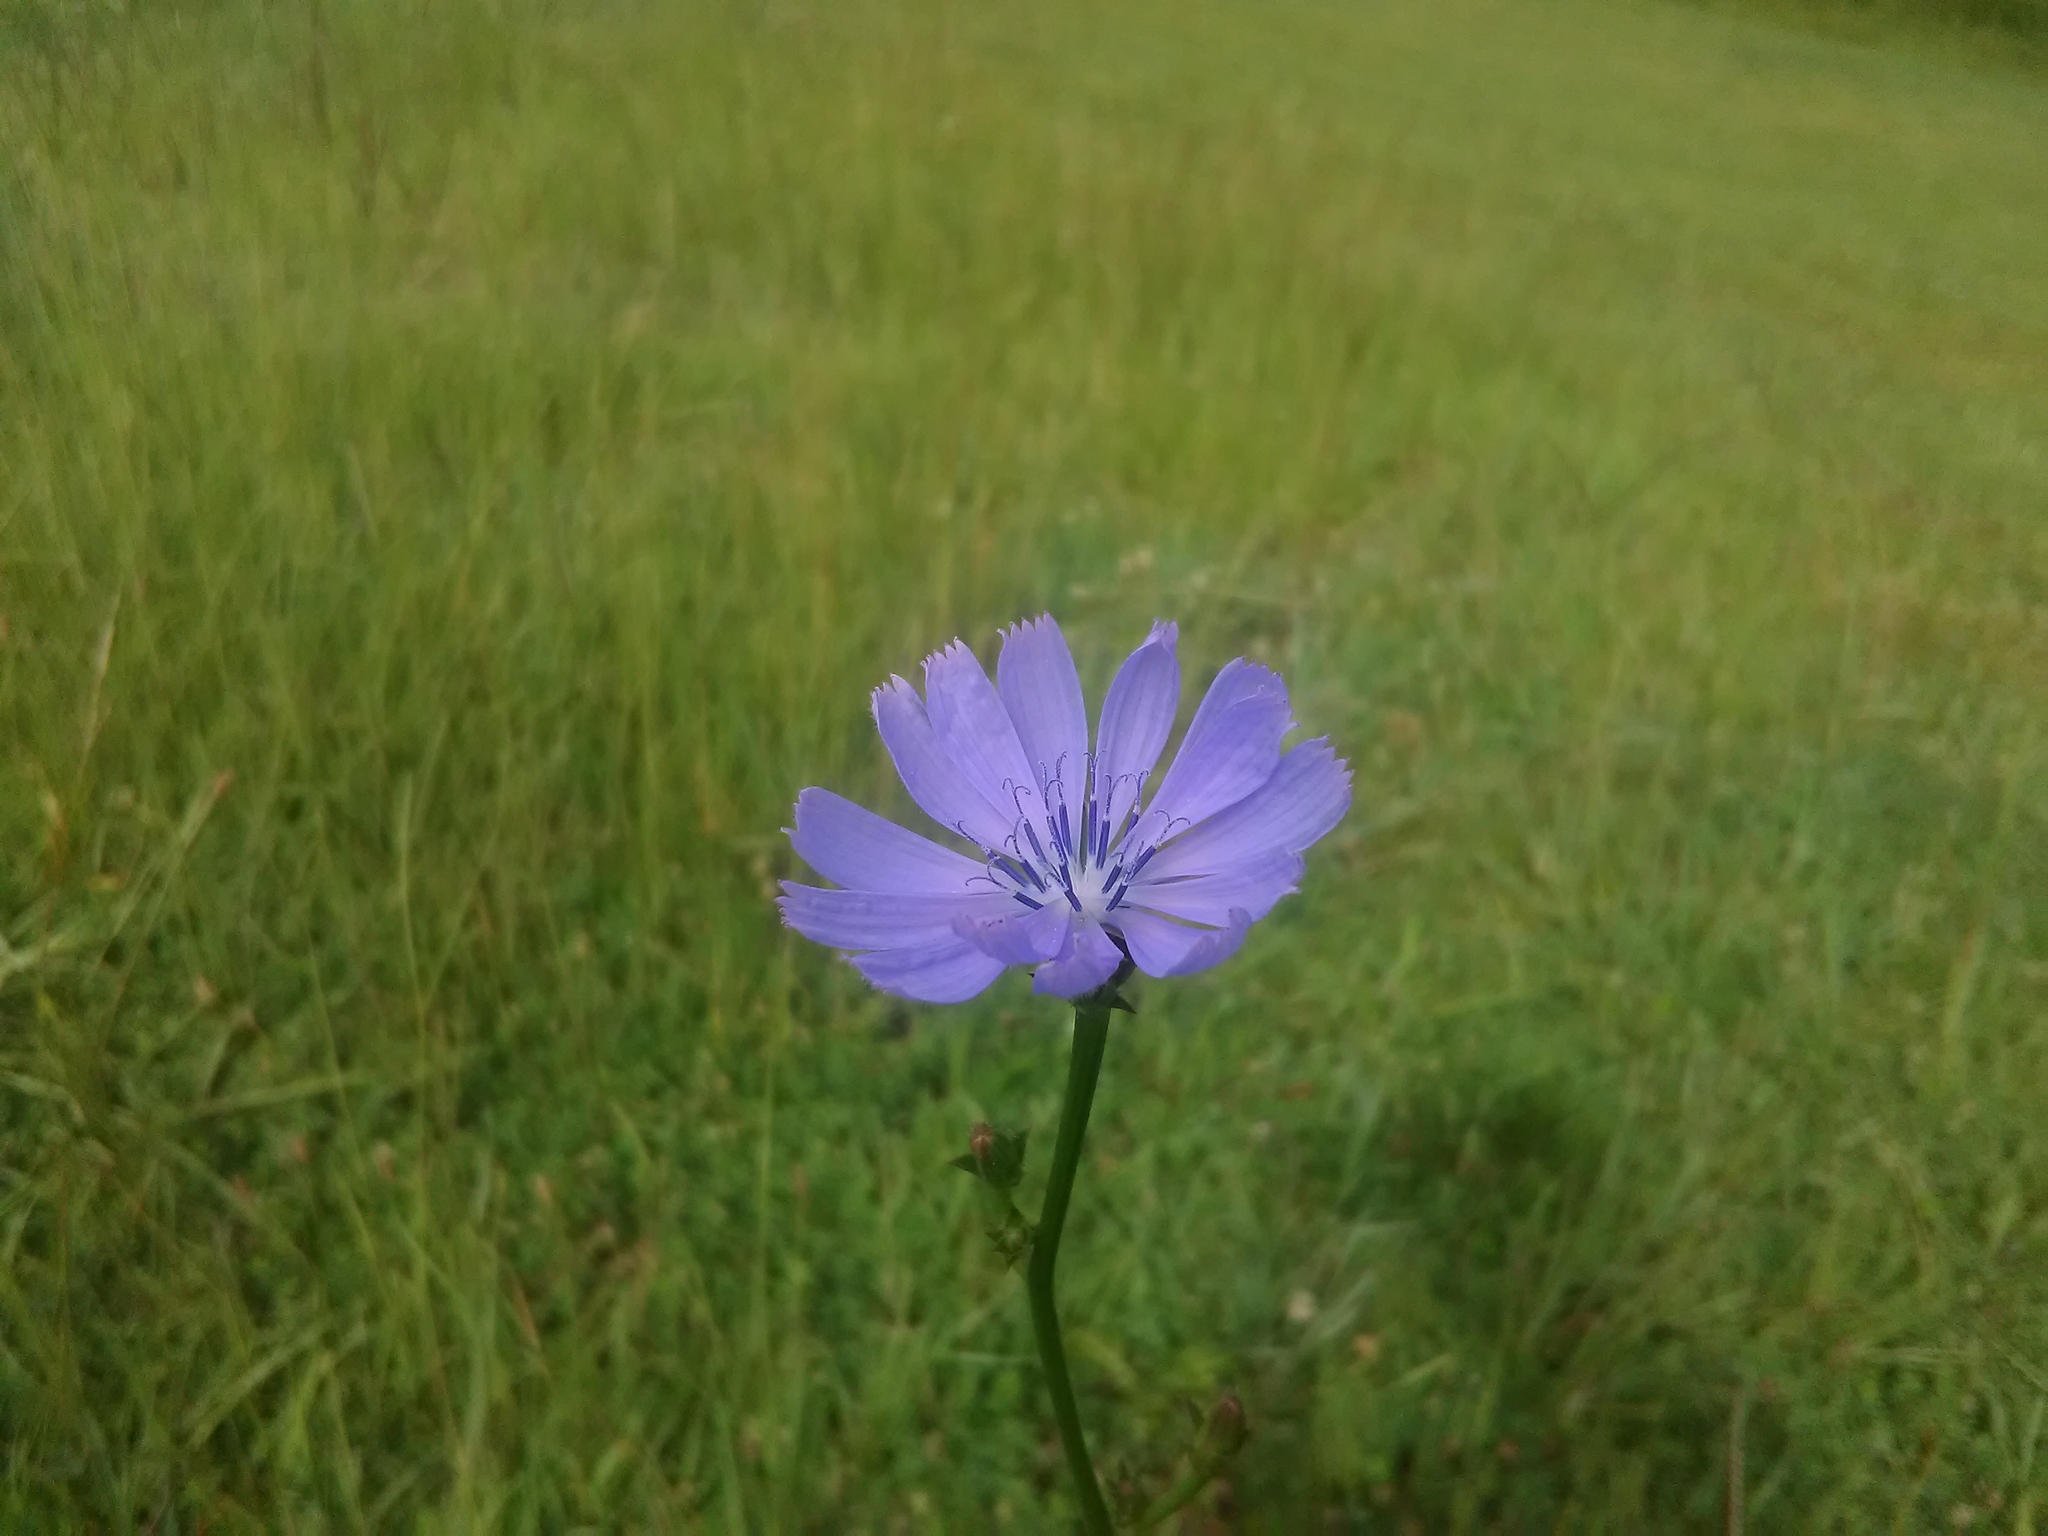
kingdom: Plantae
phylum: Tracheophyta
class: Magnoliopsida
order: Asterales
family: Asteraceae
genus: Cichorium
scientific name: Cichorium intybus
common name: Chicory
